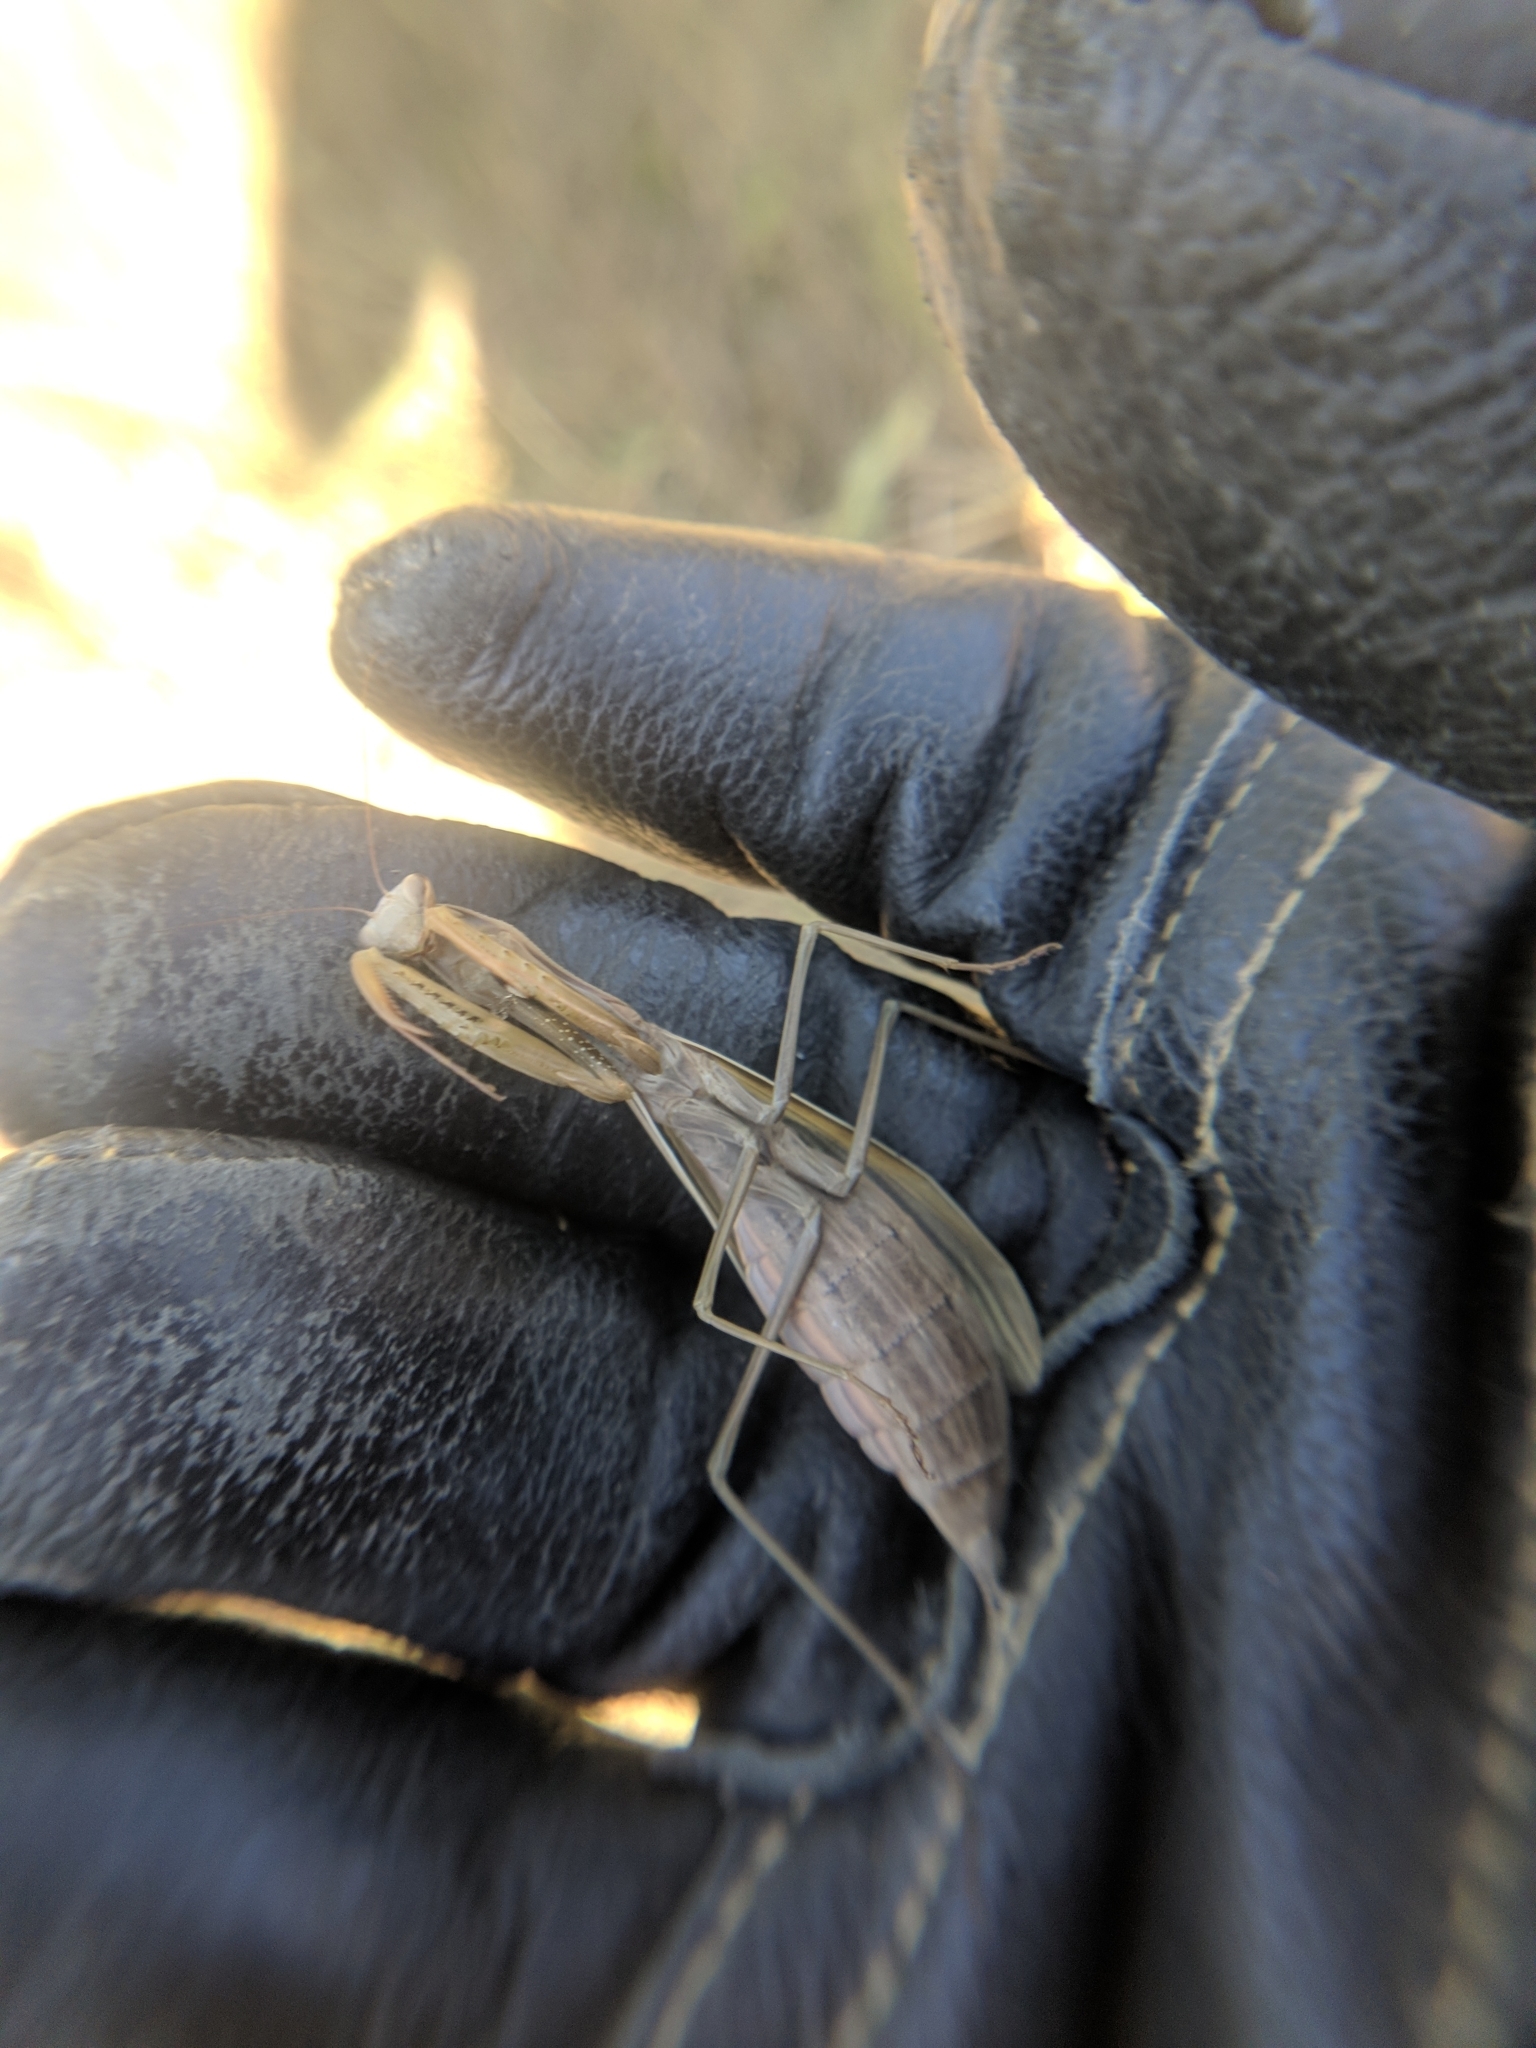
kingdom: Animalia
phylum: Arthropoda
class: Insecta
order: Mantodea
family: Mantidae
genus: Mantis
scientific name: Mantis religiosa
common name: Praying mantis
